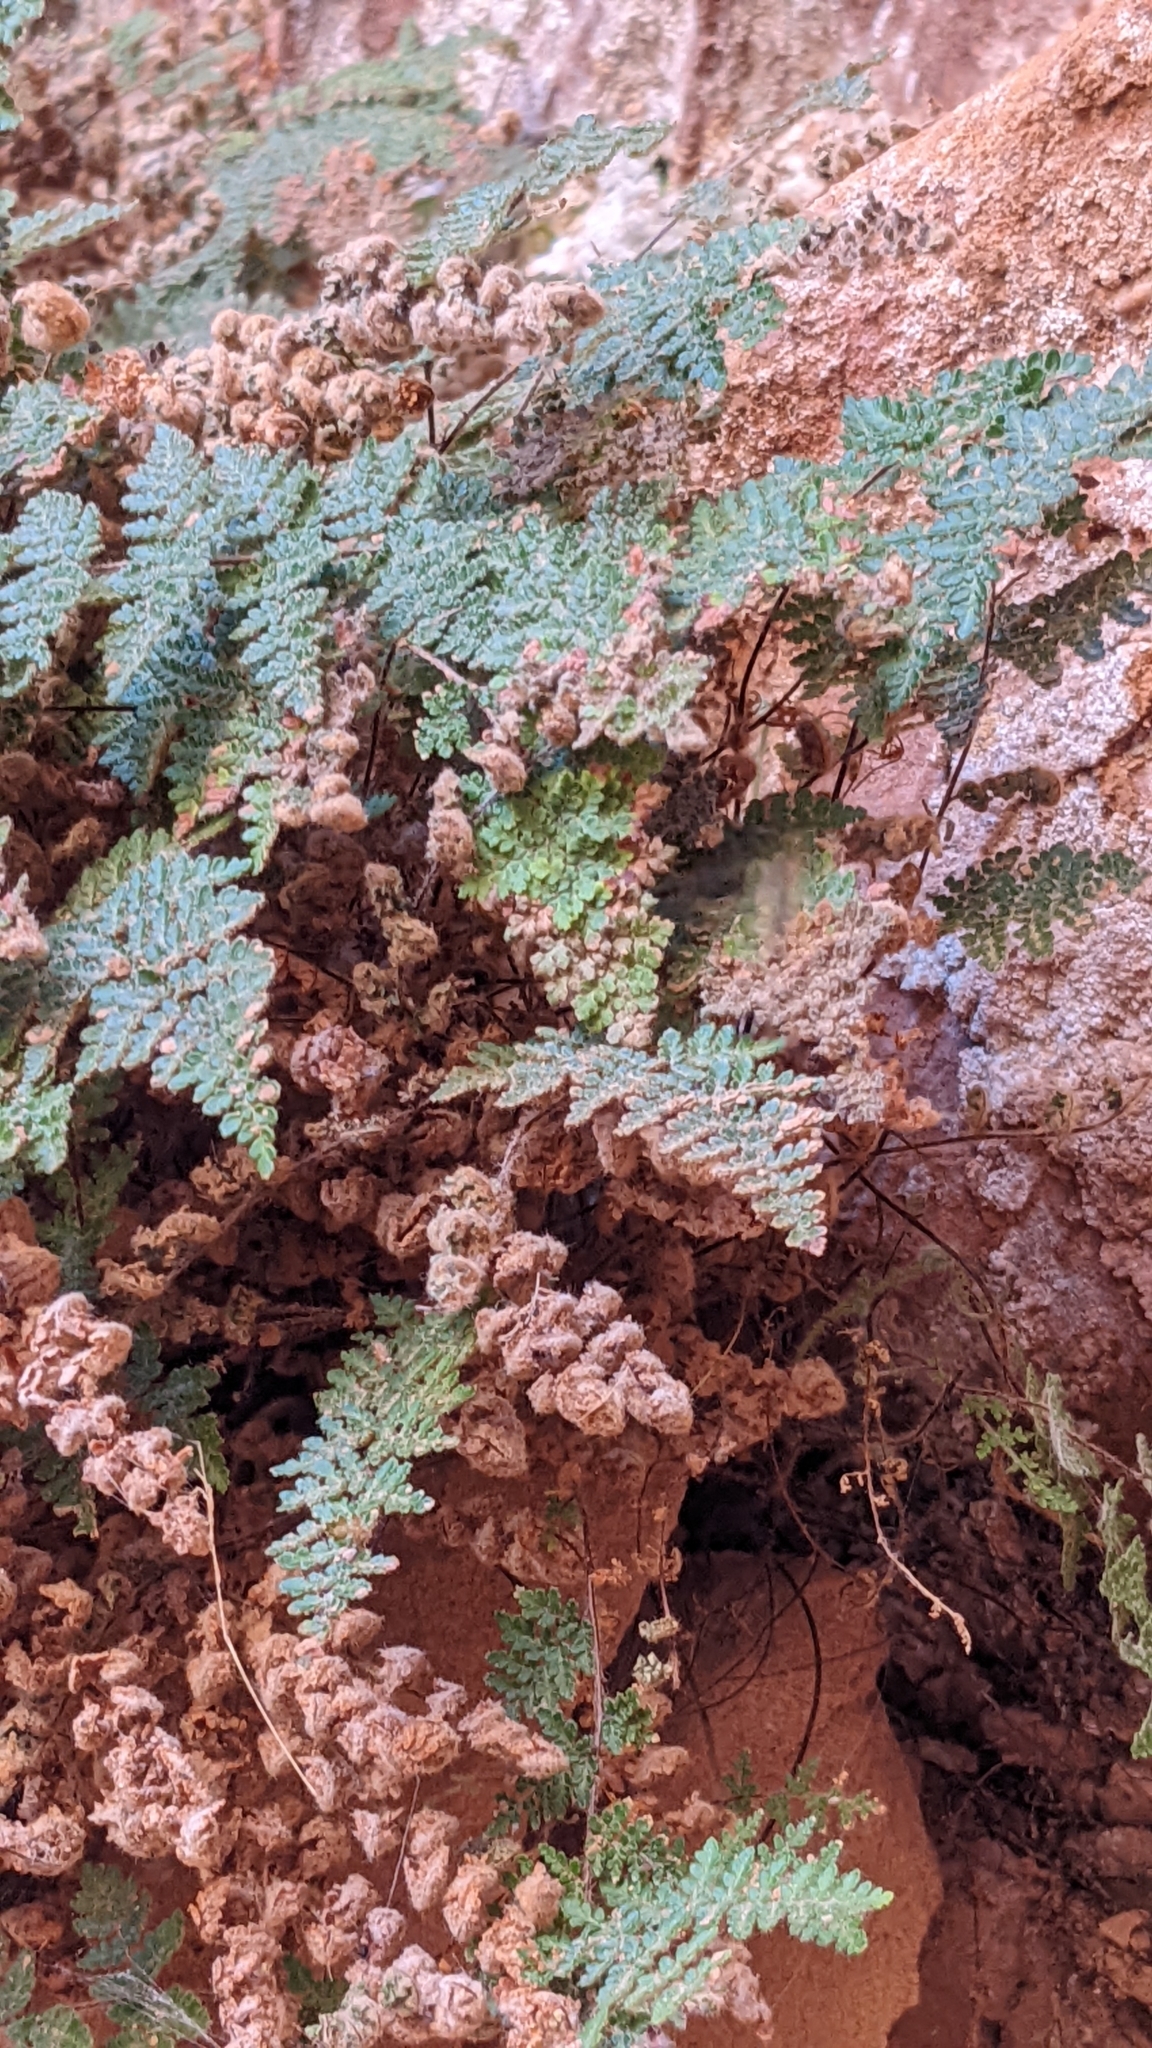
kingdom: Plantae
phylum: Tracheophyta
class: Polypodiopsida
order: Polypodiales
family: Pteridaceae
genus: Myriopteris
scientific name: Myriopteris gracilis
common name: Fee's lip fern
